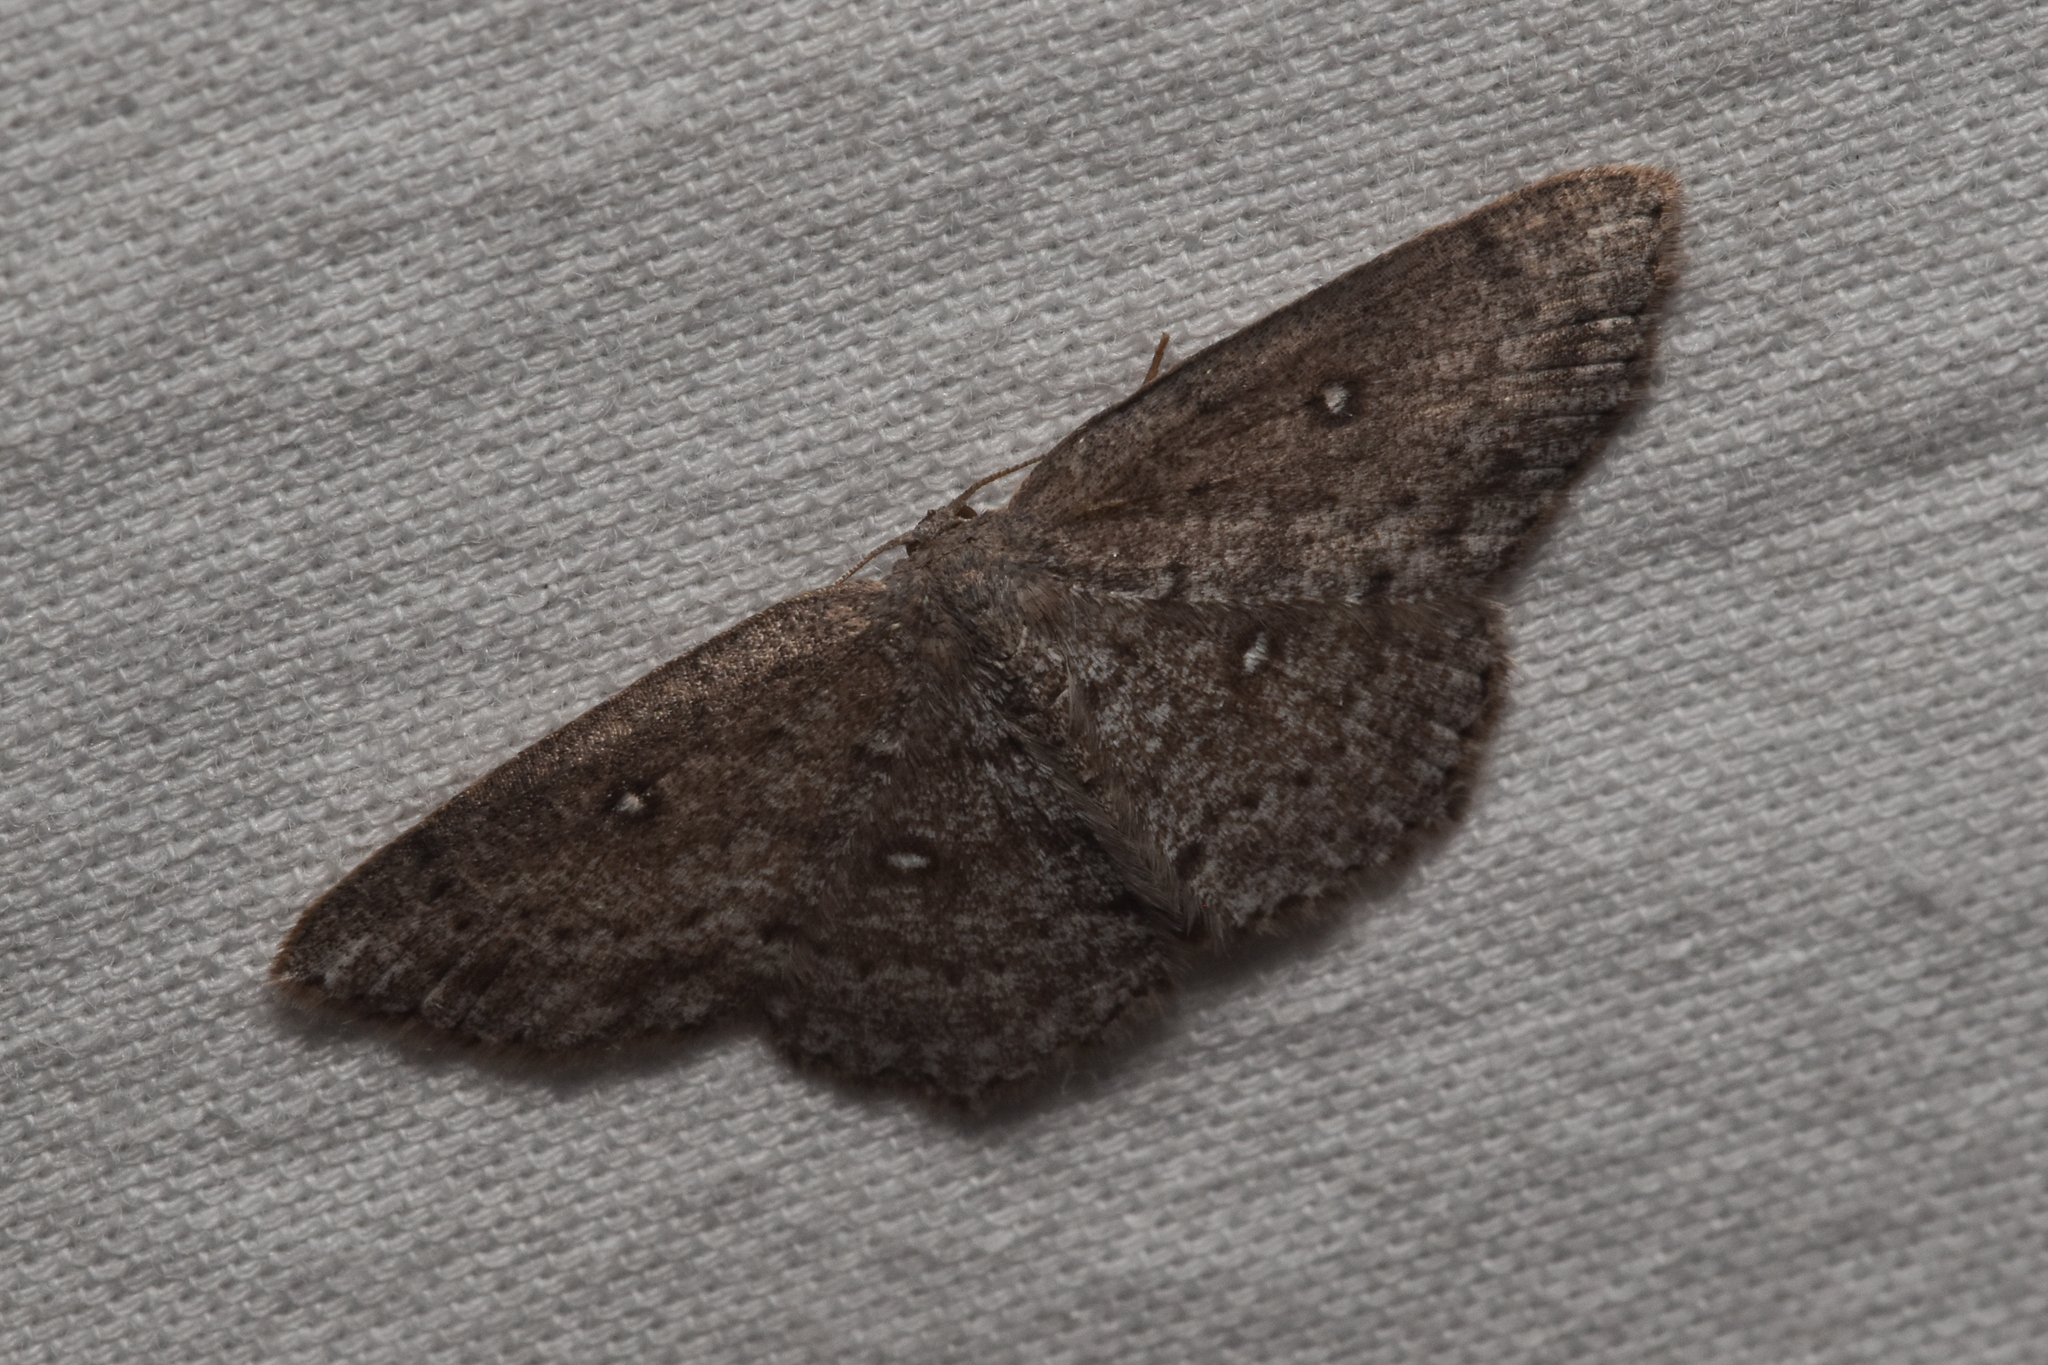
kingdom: Animalia
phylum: Arthropoda
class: Insecta
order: Lepidoptera
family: Geometridae
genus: Cyclophora
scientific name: Cyclophora pendulinaria
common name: Sweet fern geometer
